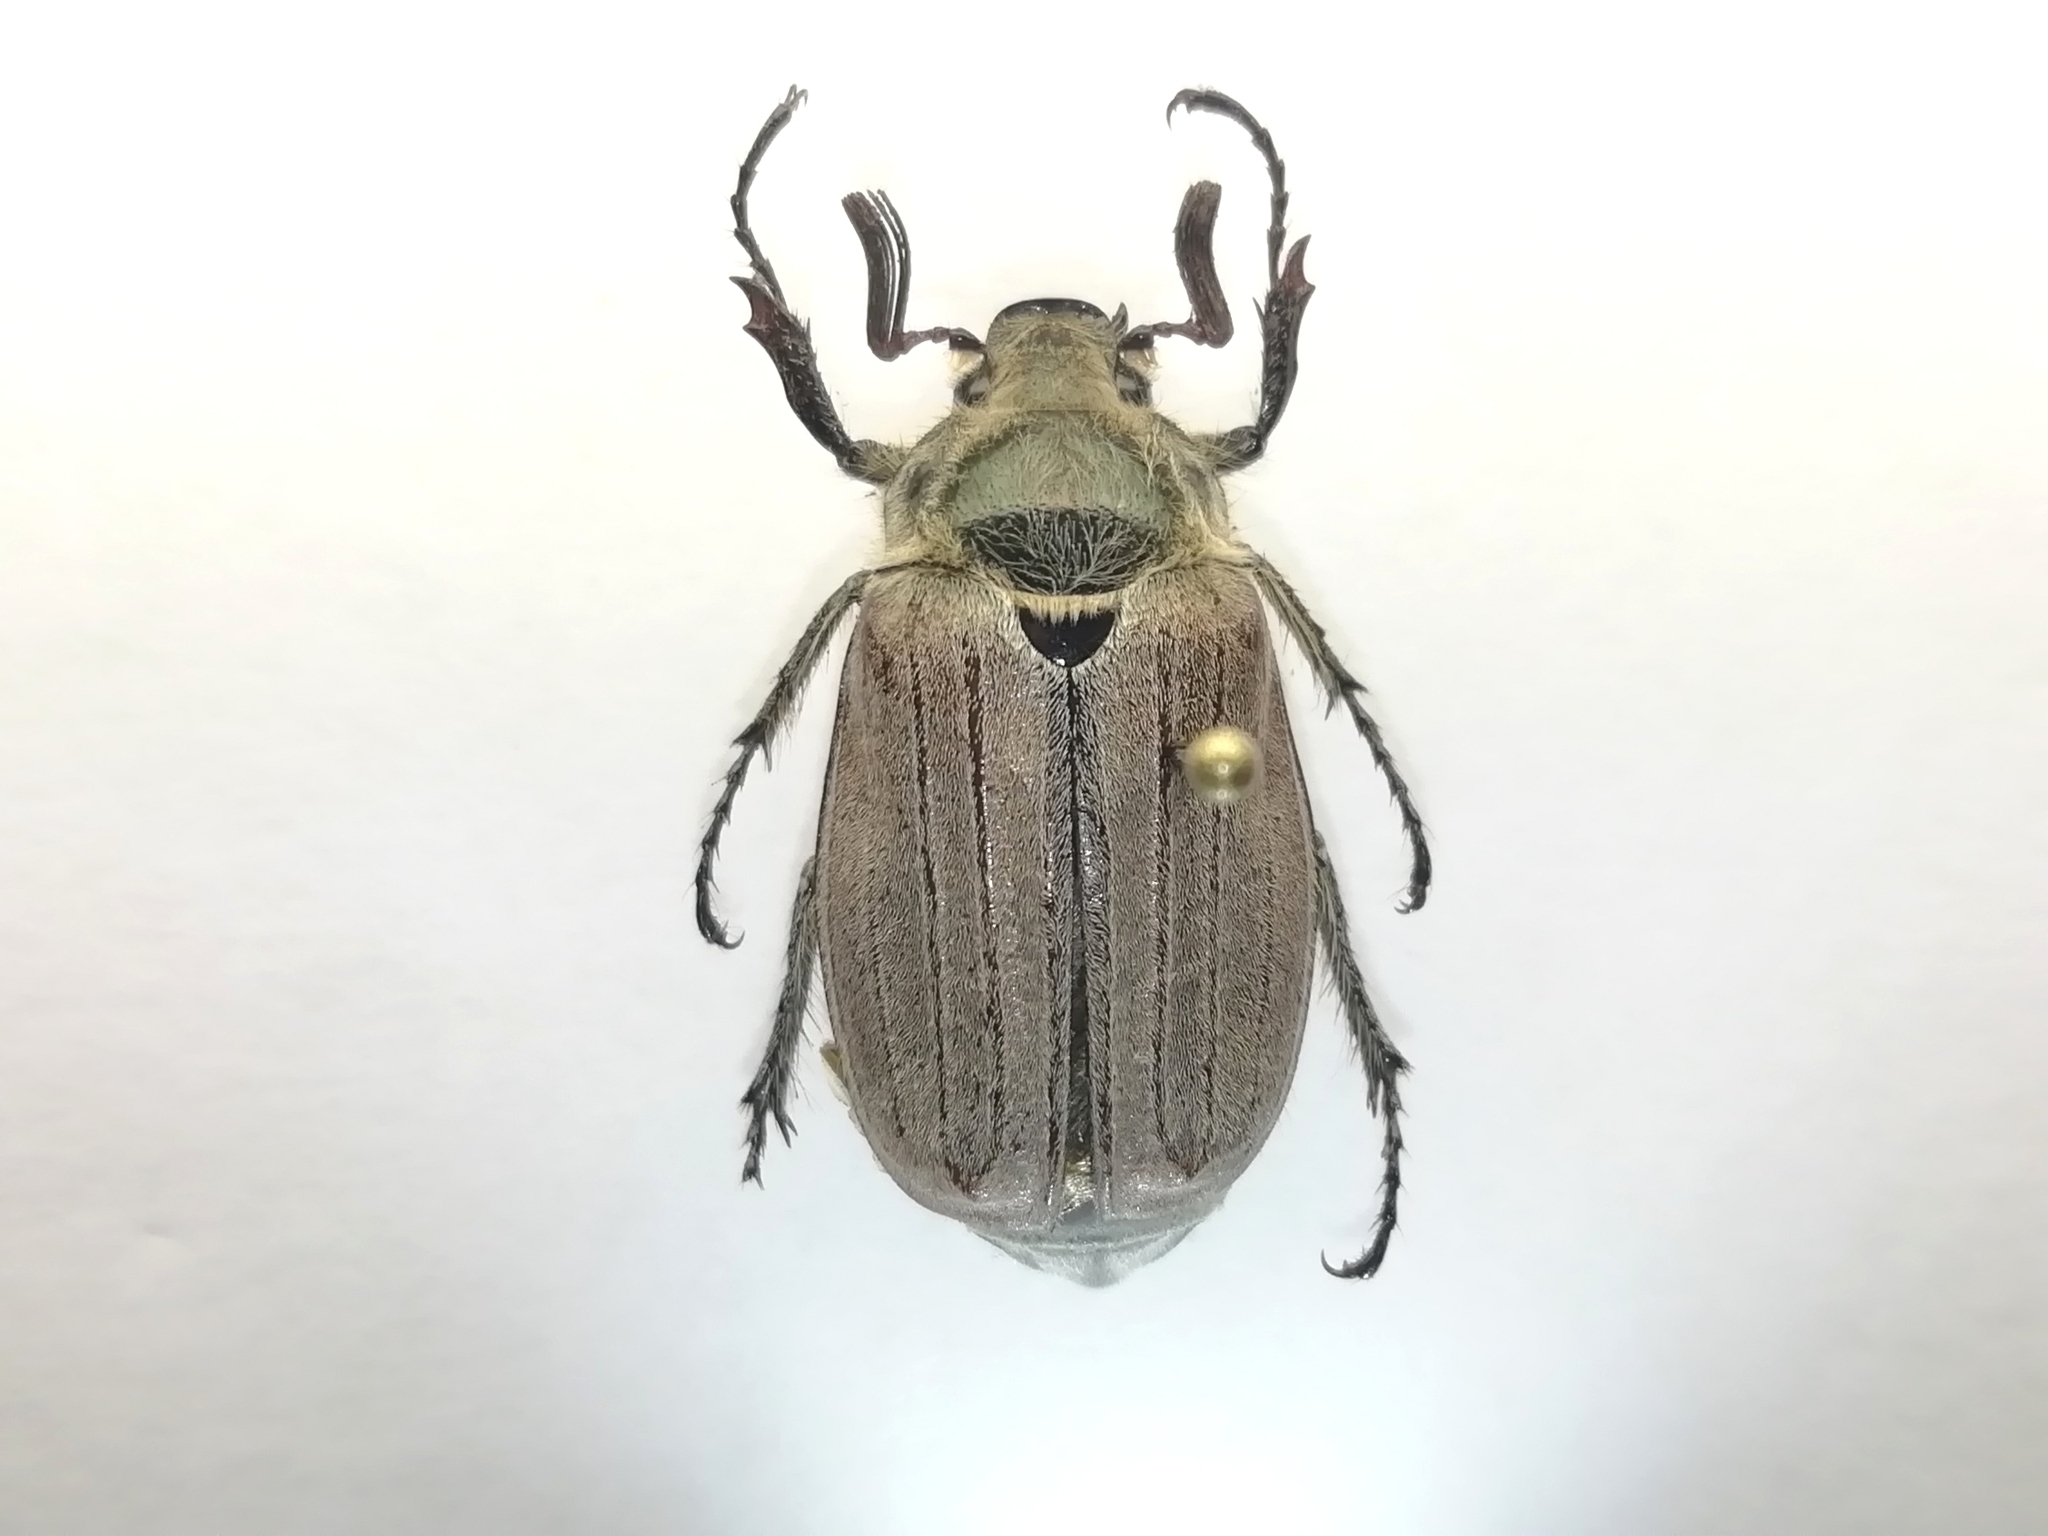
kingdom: Animalia
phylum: Arthropoda
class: Insecta
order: Coleoptera
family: Scarabaeidae
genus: Melolontha
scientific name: Melolontha hippocastani
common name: Chestnut cockchafer
